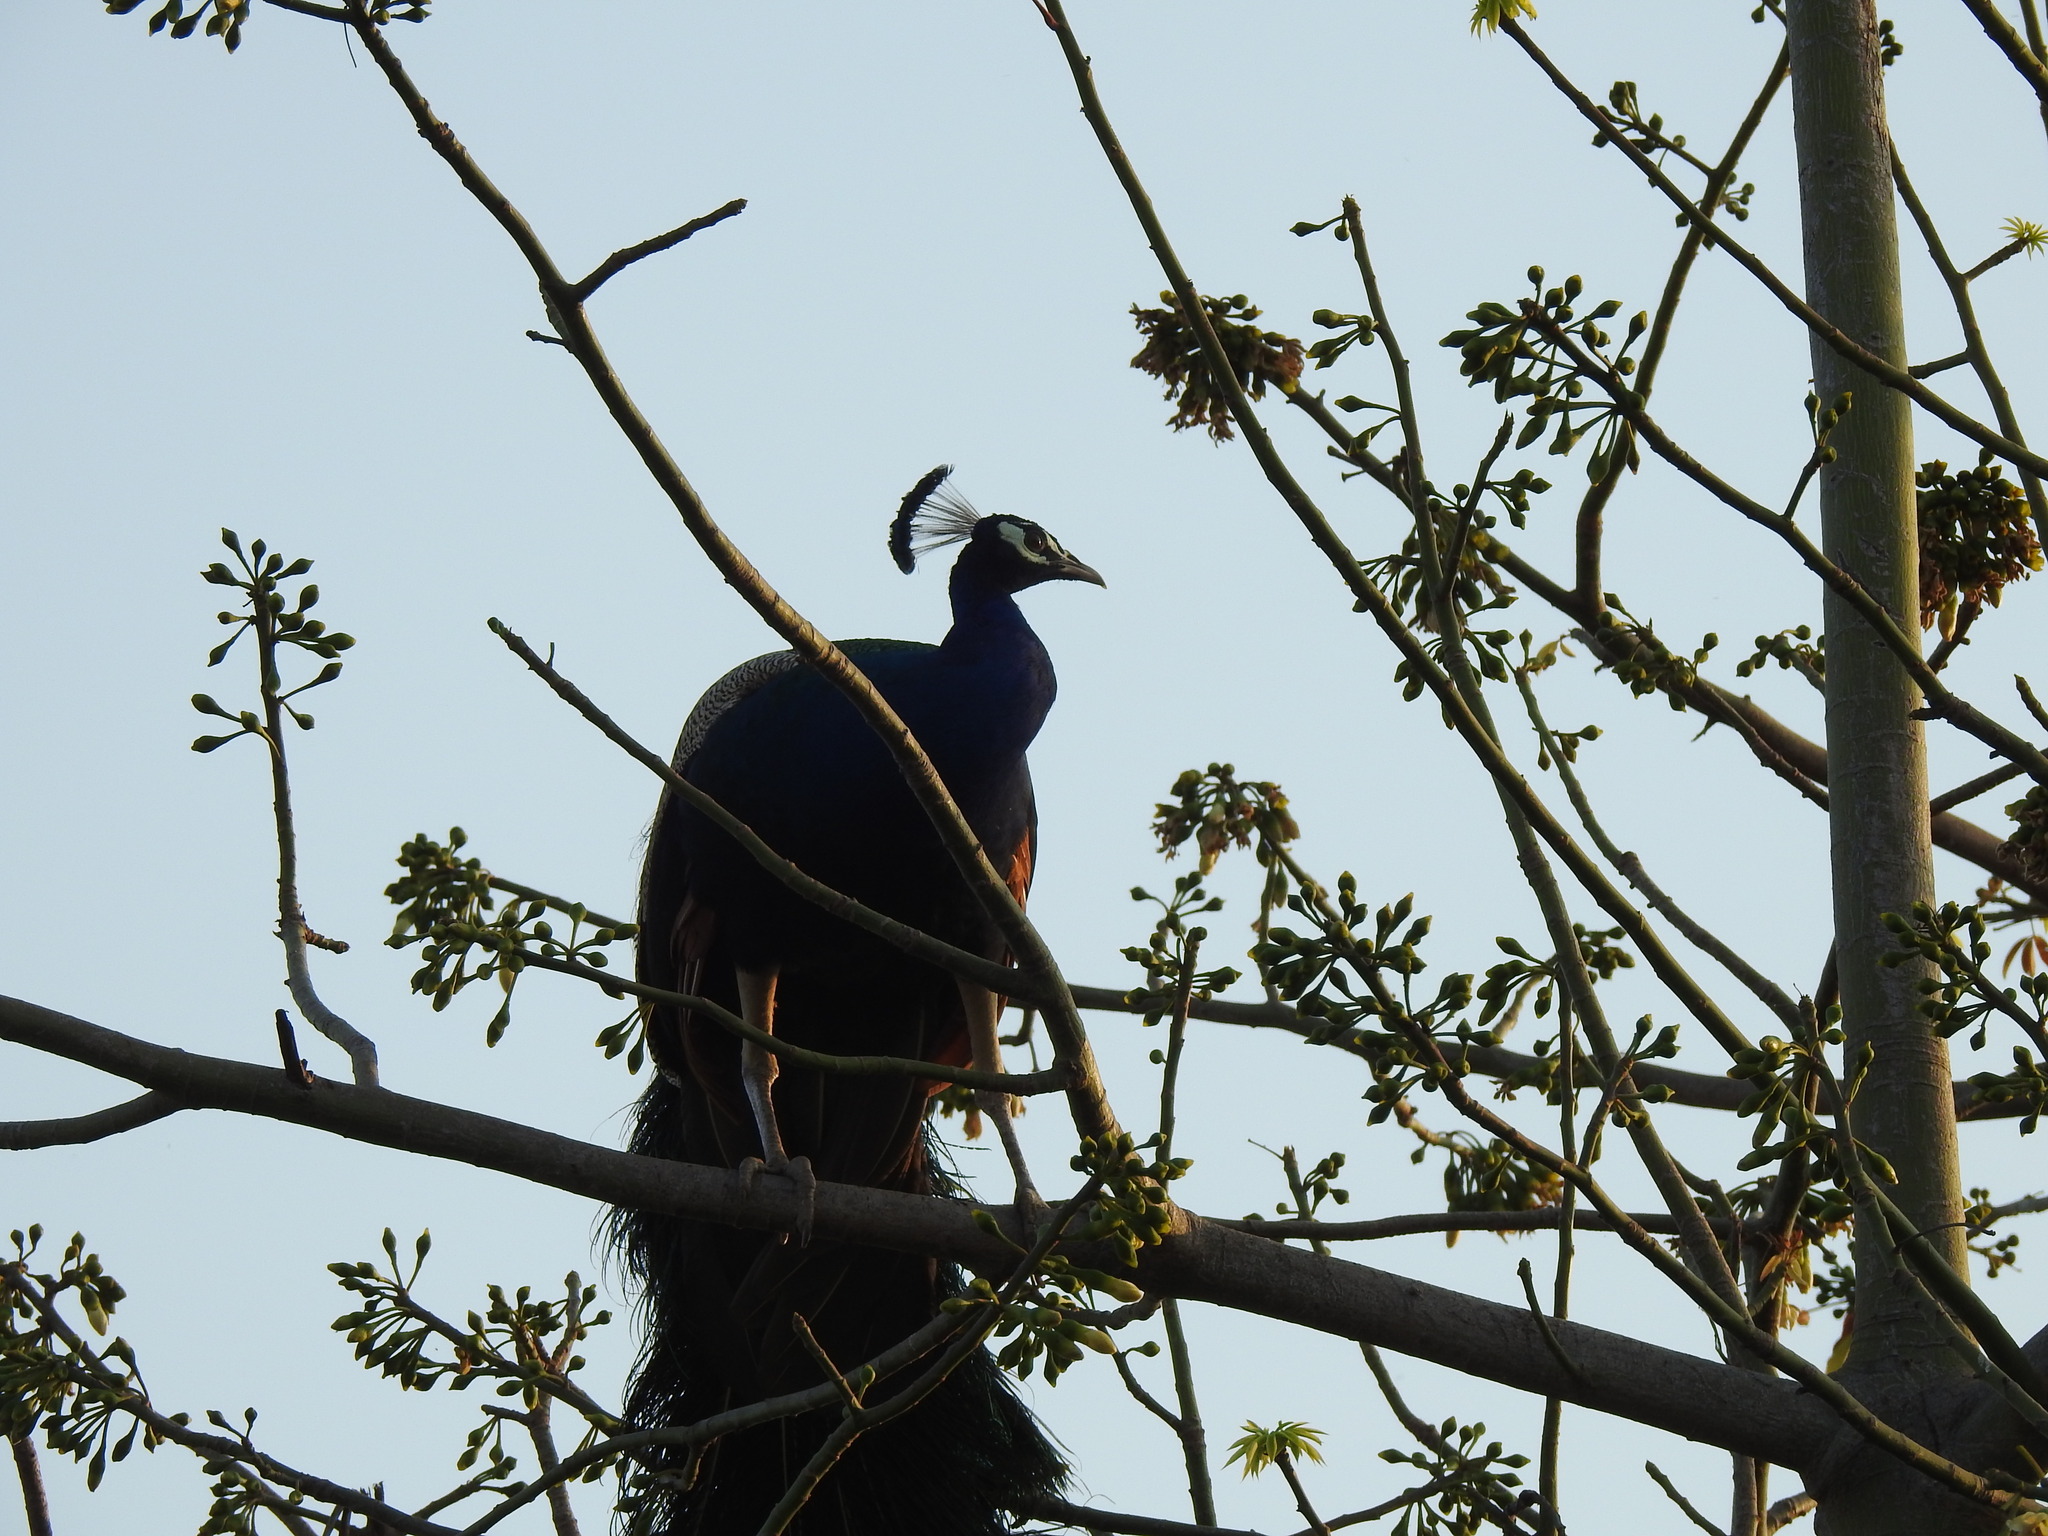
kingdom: Animalia
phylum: Chordata
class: Aves
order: Galliformes
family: Phasianidae
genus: Pavo
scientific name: Pavo cristatus
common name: Indian peafowl
